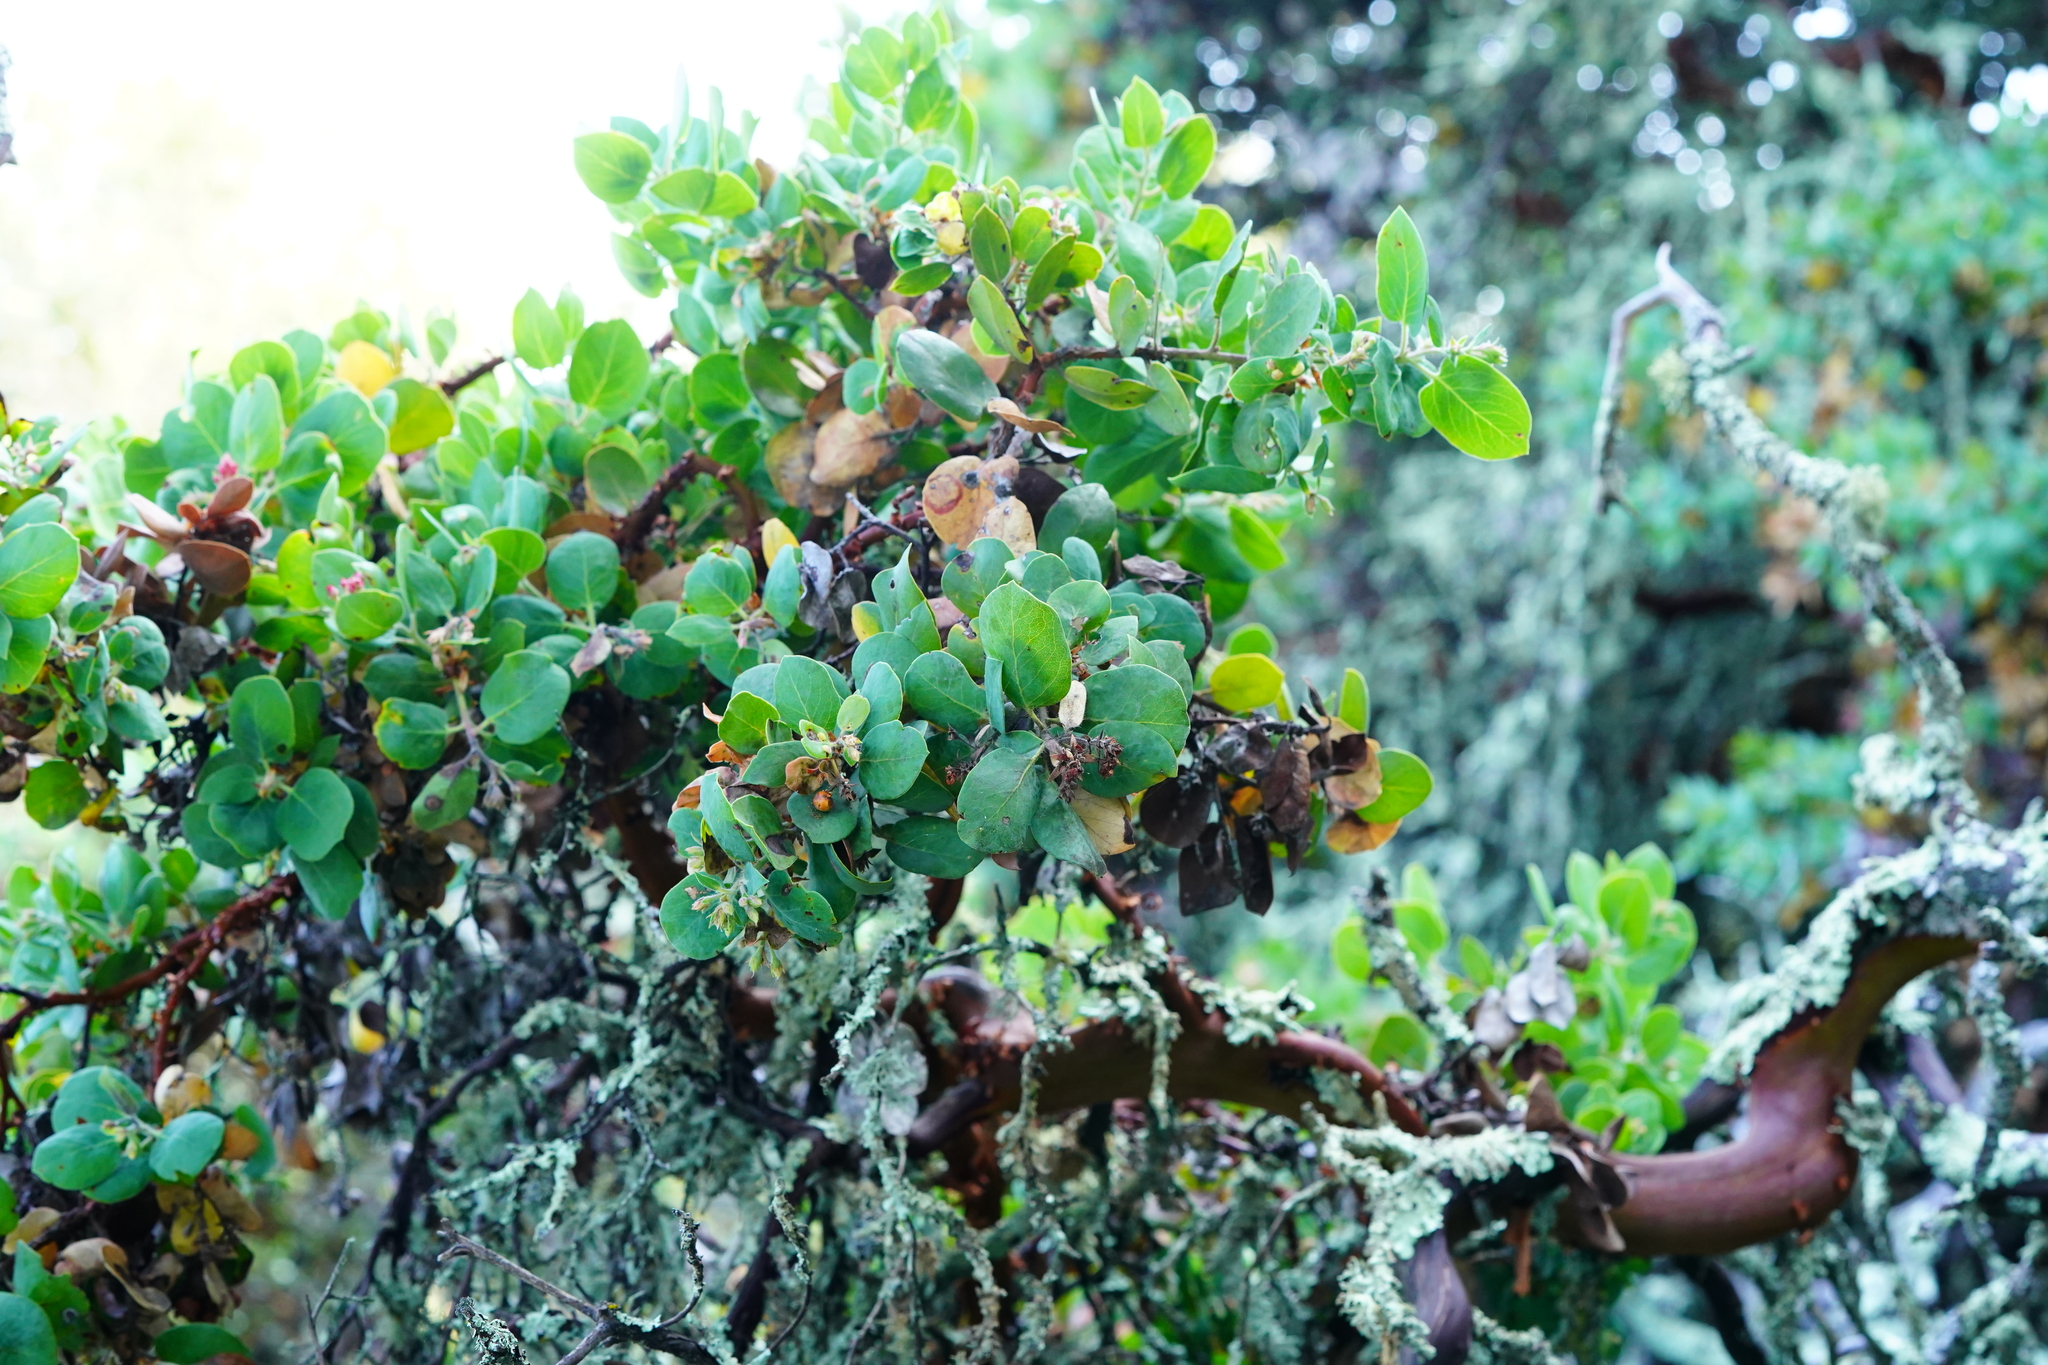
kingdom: Plantae
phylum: Tracheophyta
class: Magnoliopsida
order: Ericales
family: Ericaceae
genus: Arctostaphylos
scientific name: Arctostaphylos crustacea
